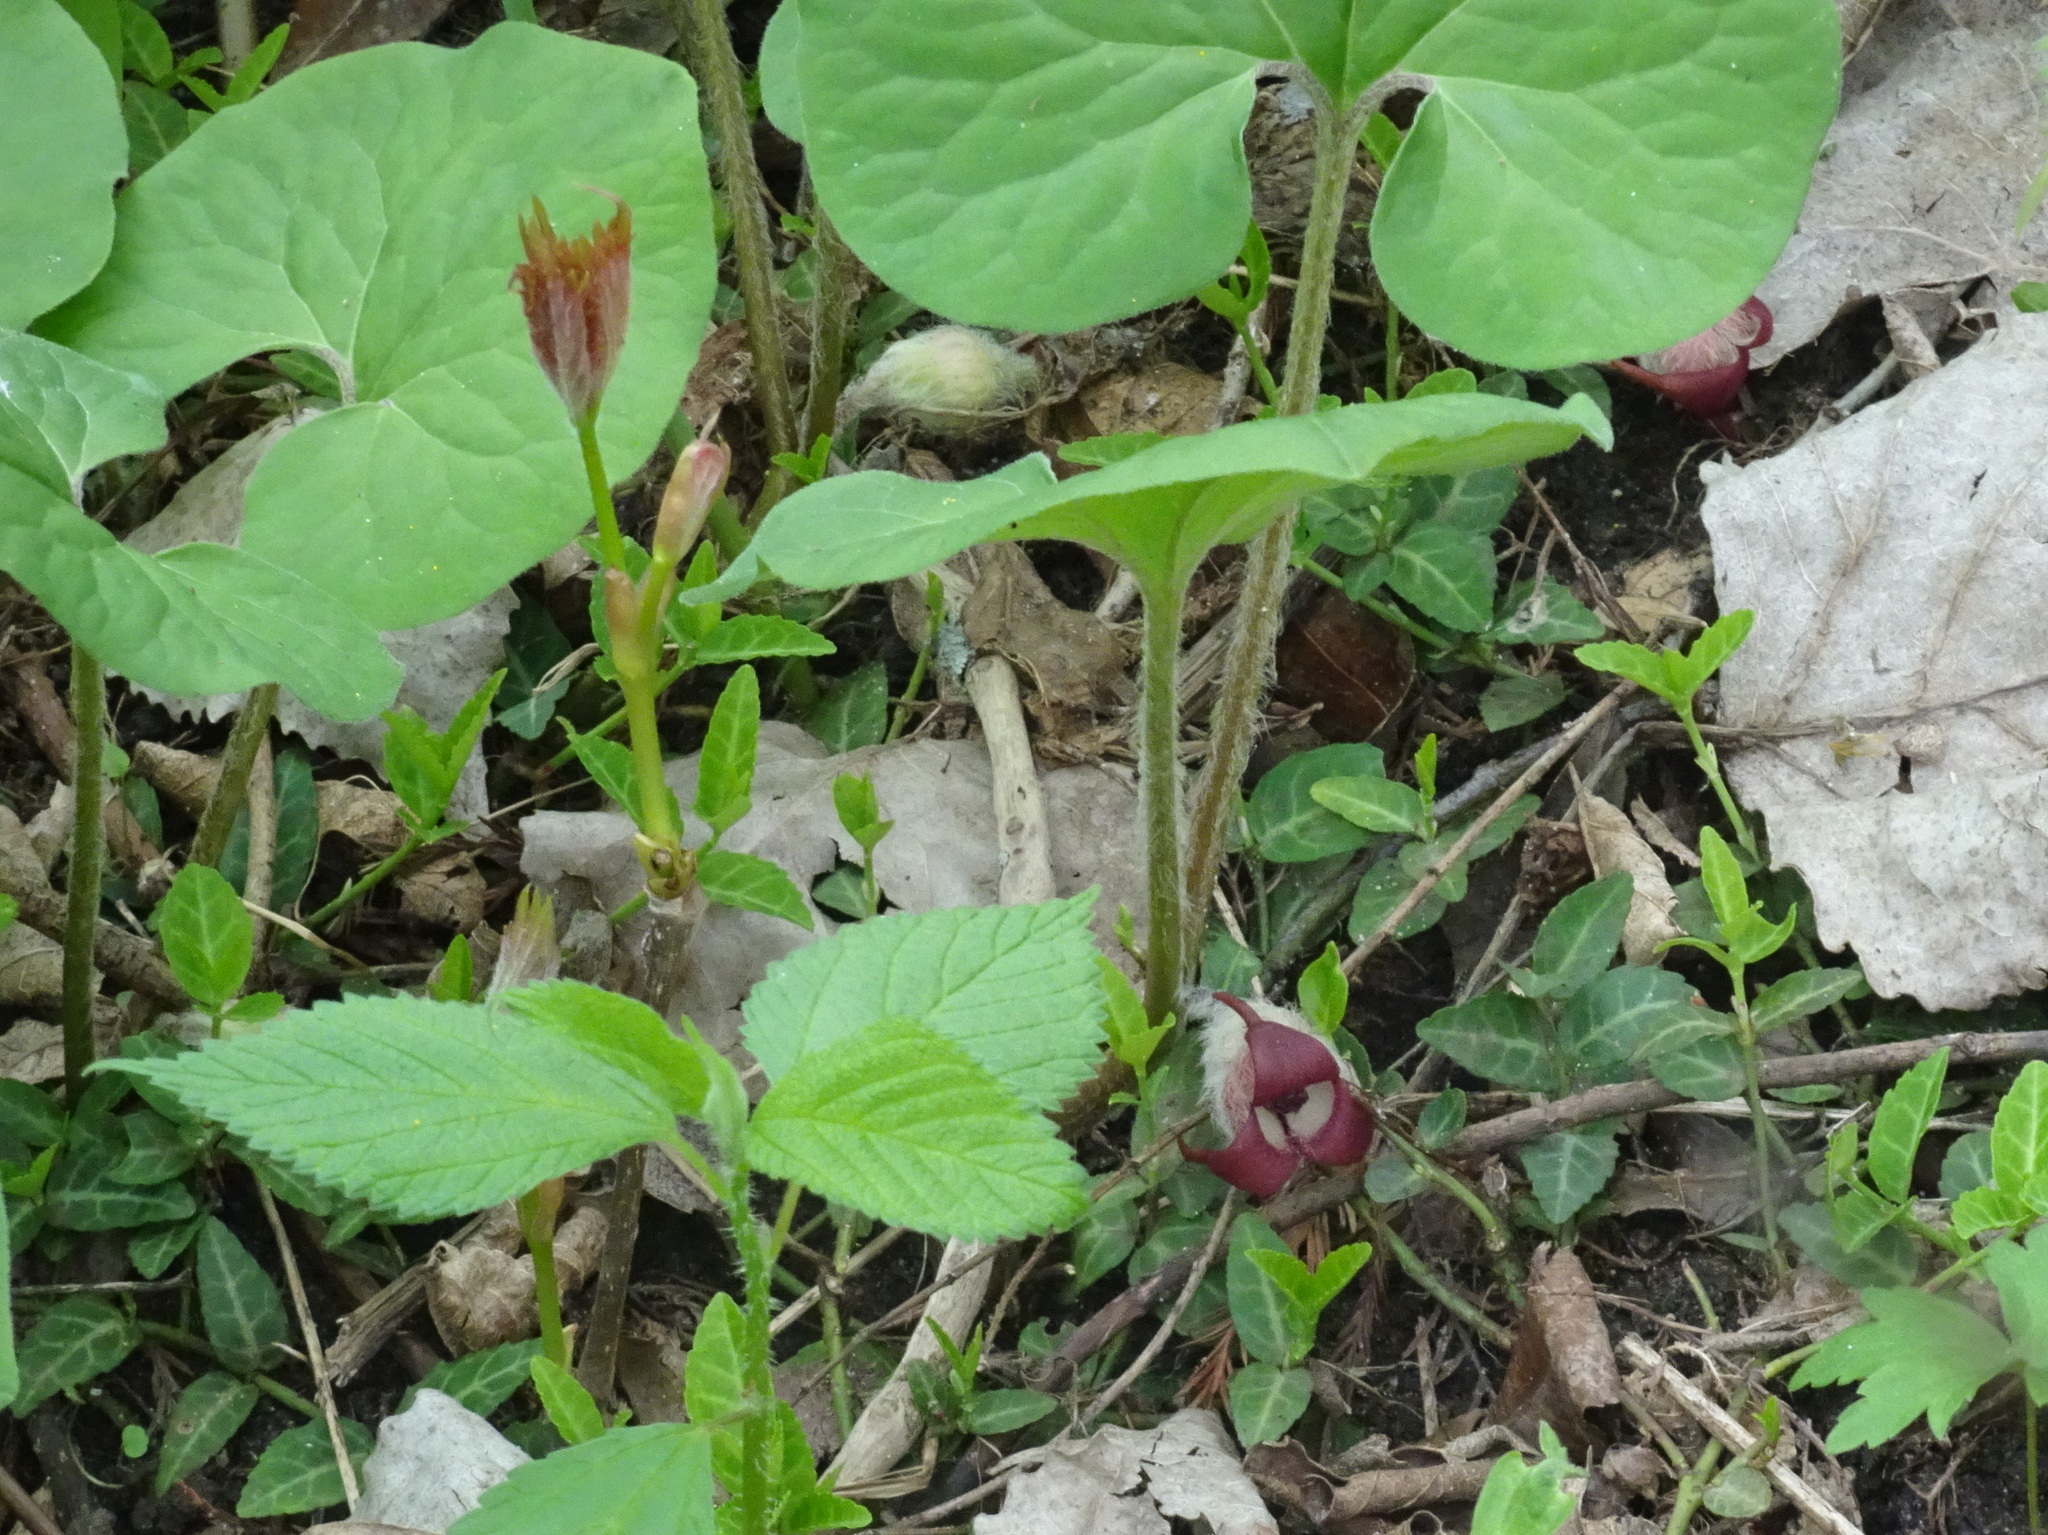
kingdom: Plantae
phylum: Tracheophyta
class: Magnoliopsida
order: Piperales
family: Aristolochiaceae
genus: Asarum
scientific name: Asarum canadense
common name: Wild ginger
